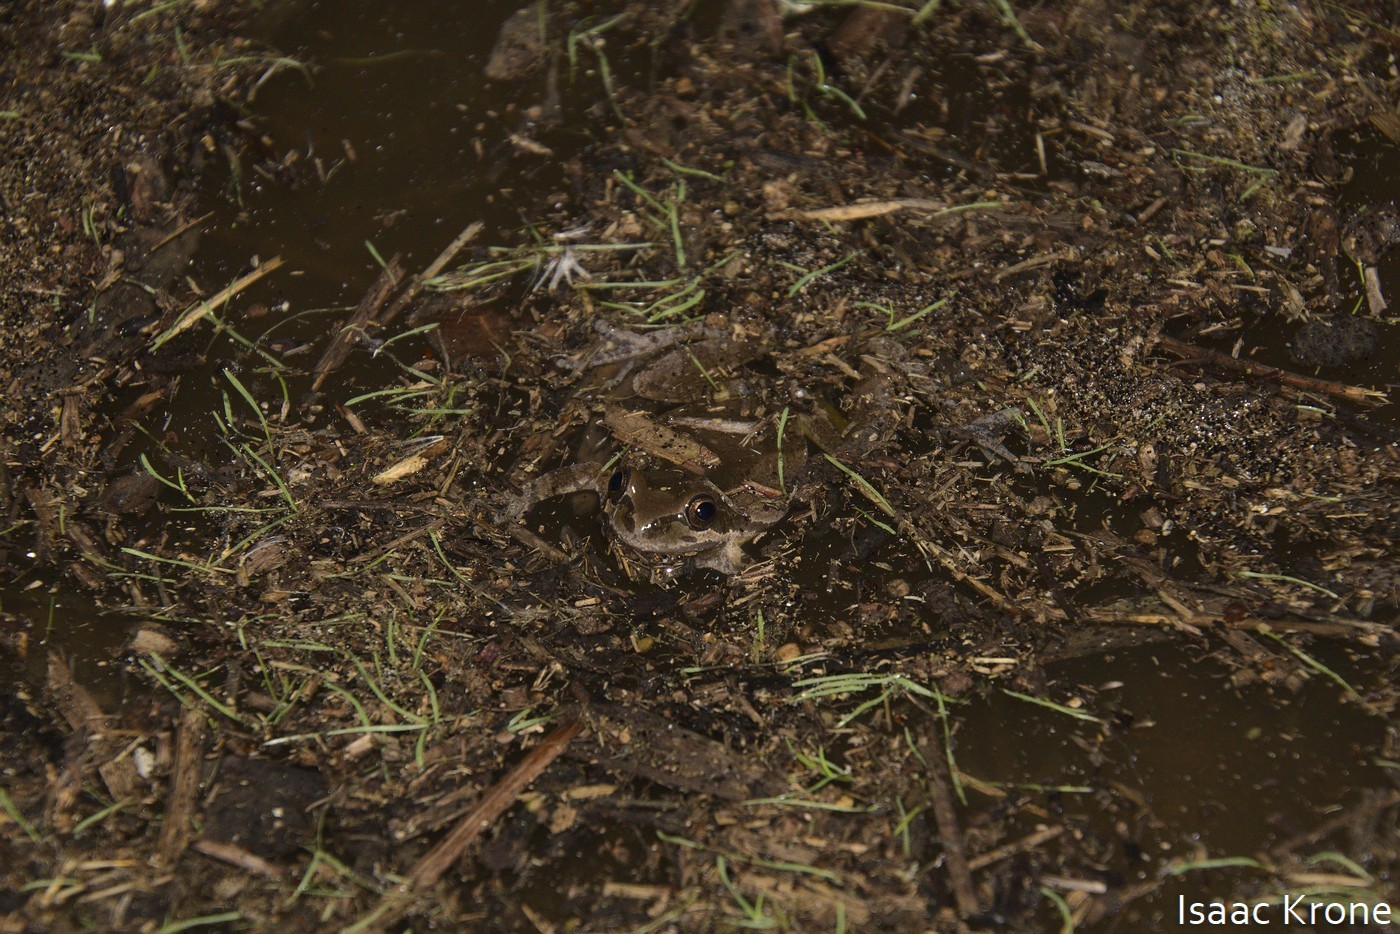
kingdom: Animalia
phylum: Chordata
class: Amphibia
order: Anura
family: Hylidae
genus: Pseudacris
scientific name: Pseudacris regilla
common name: Pacific chorus frog
